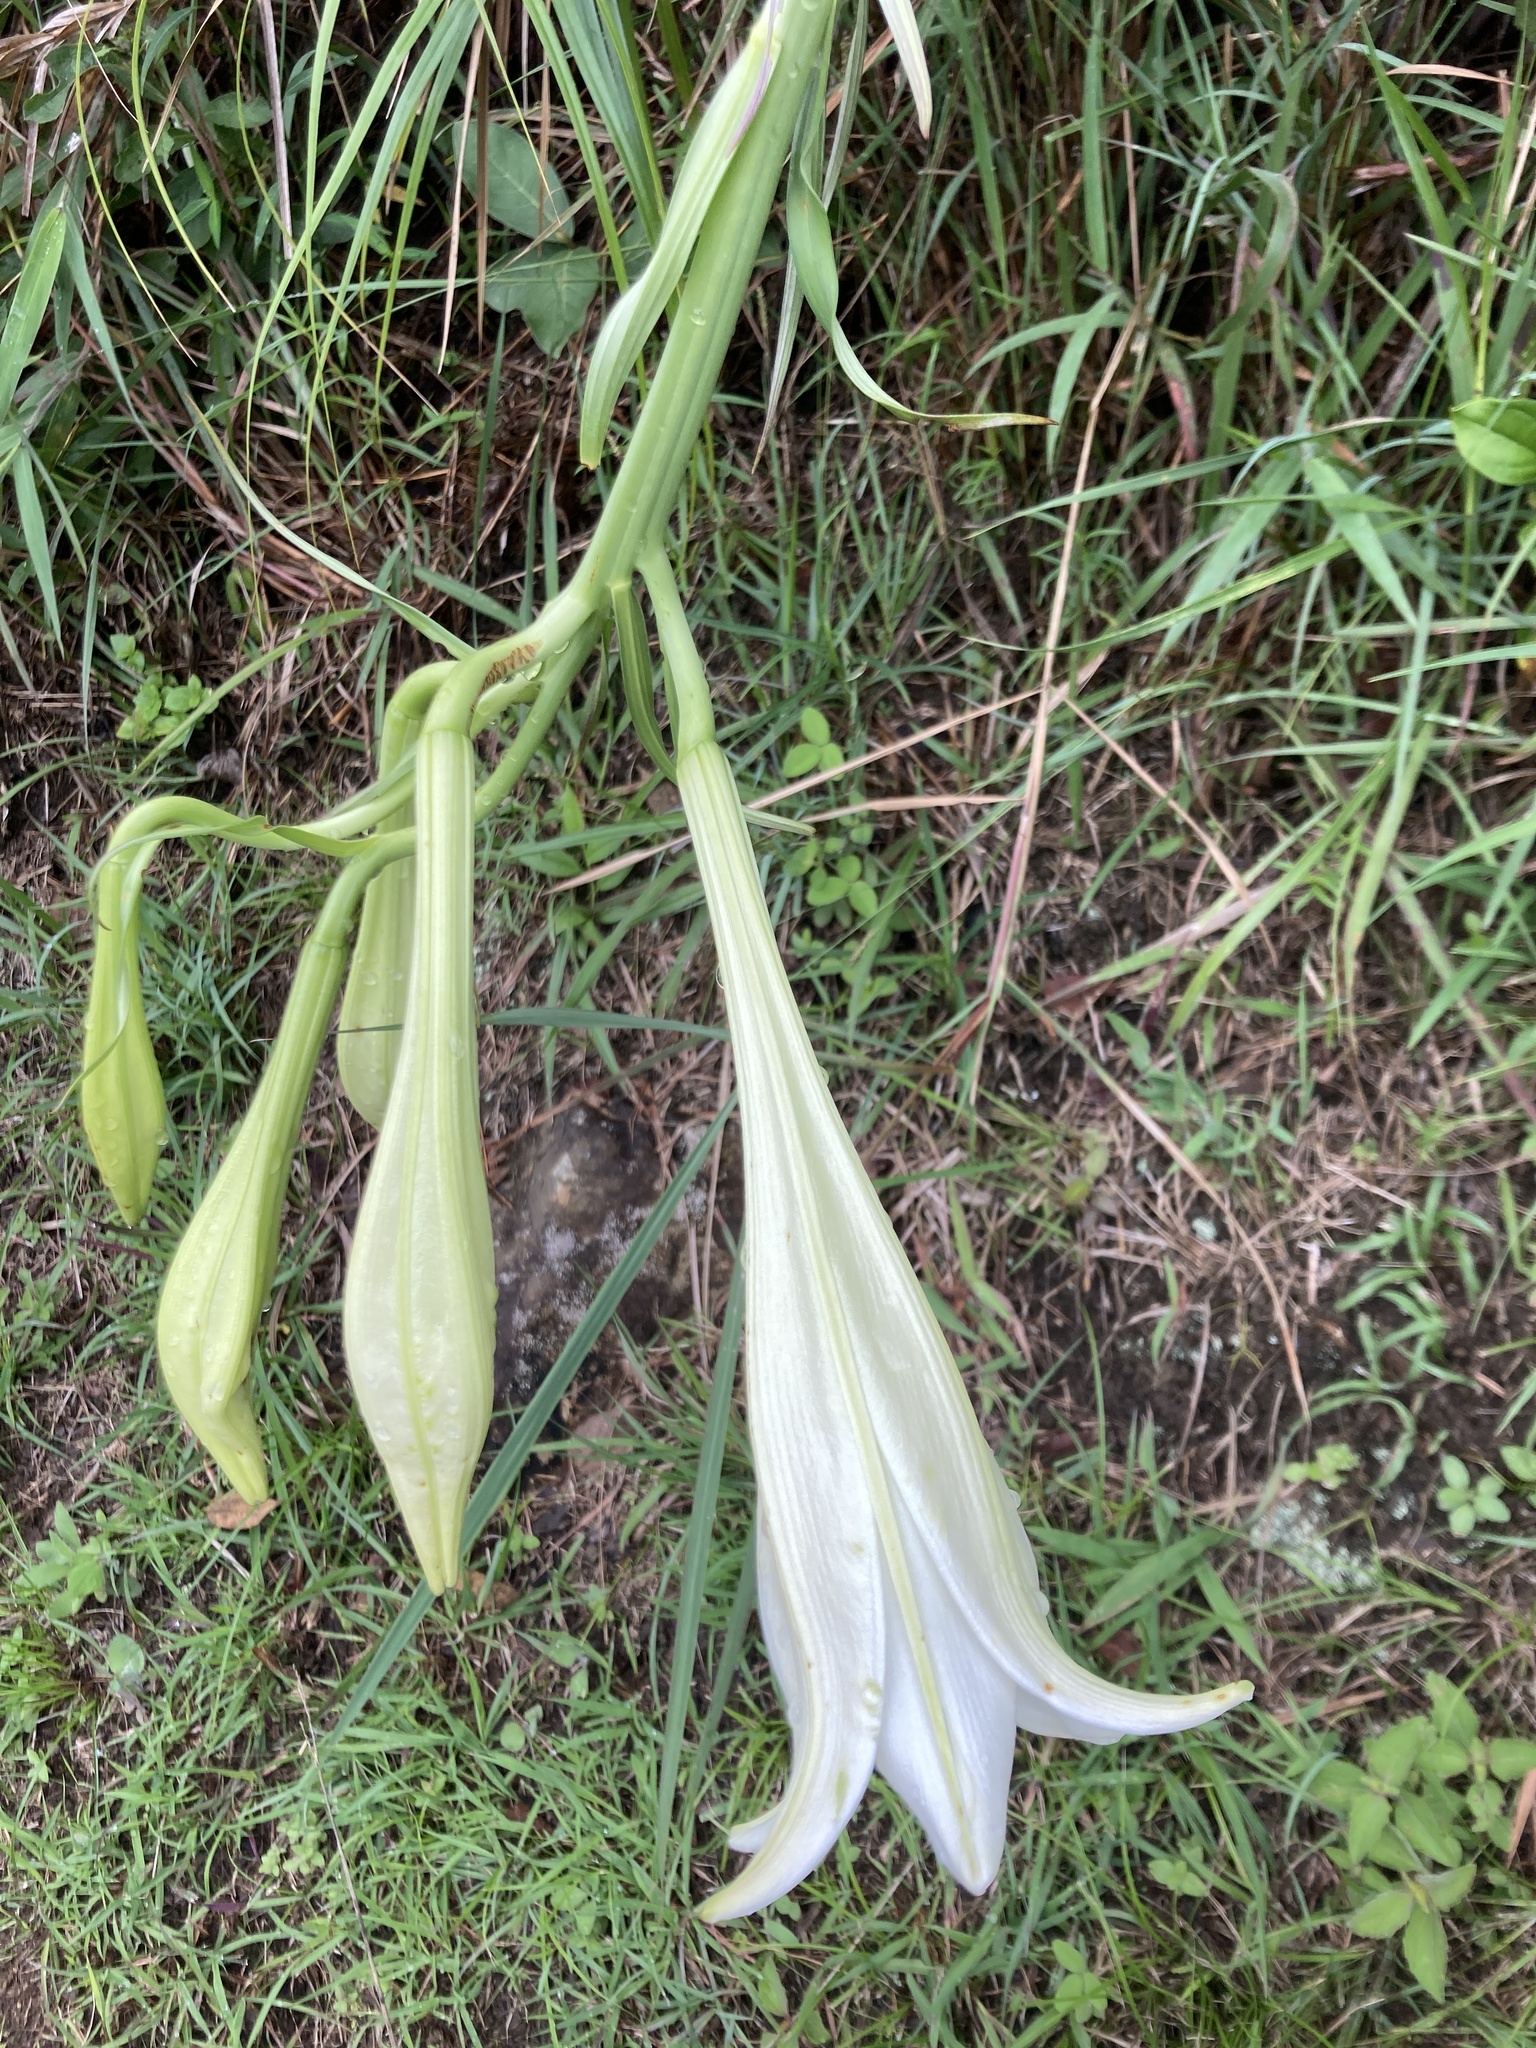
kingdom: Plantae
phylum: Tracheophyta
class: Liliopsida
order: Liliales
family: Liliaceae
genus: Lilium
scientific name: Lilium formosanum
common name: Formosa lily
